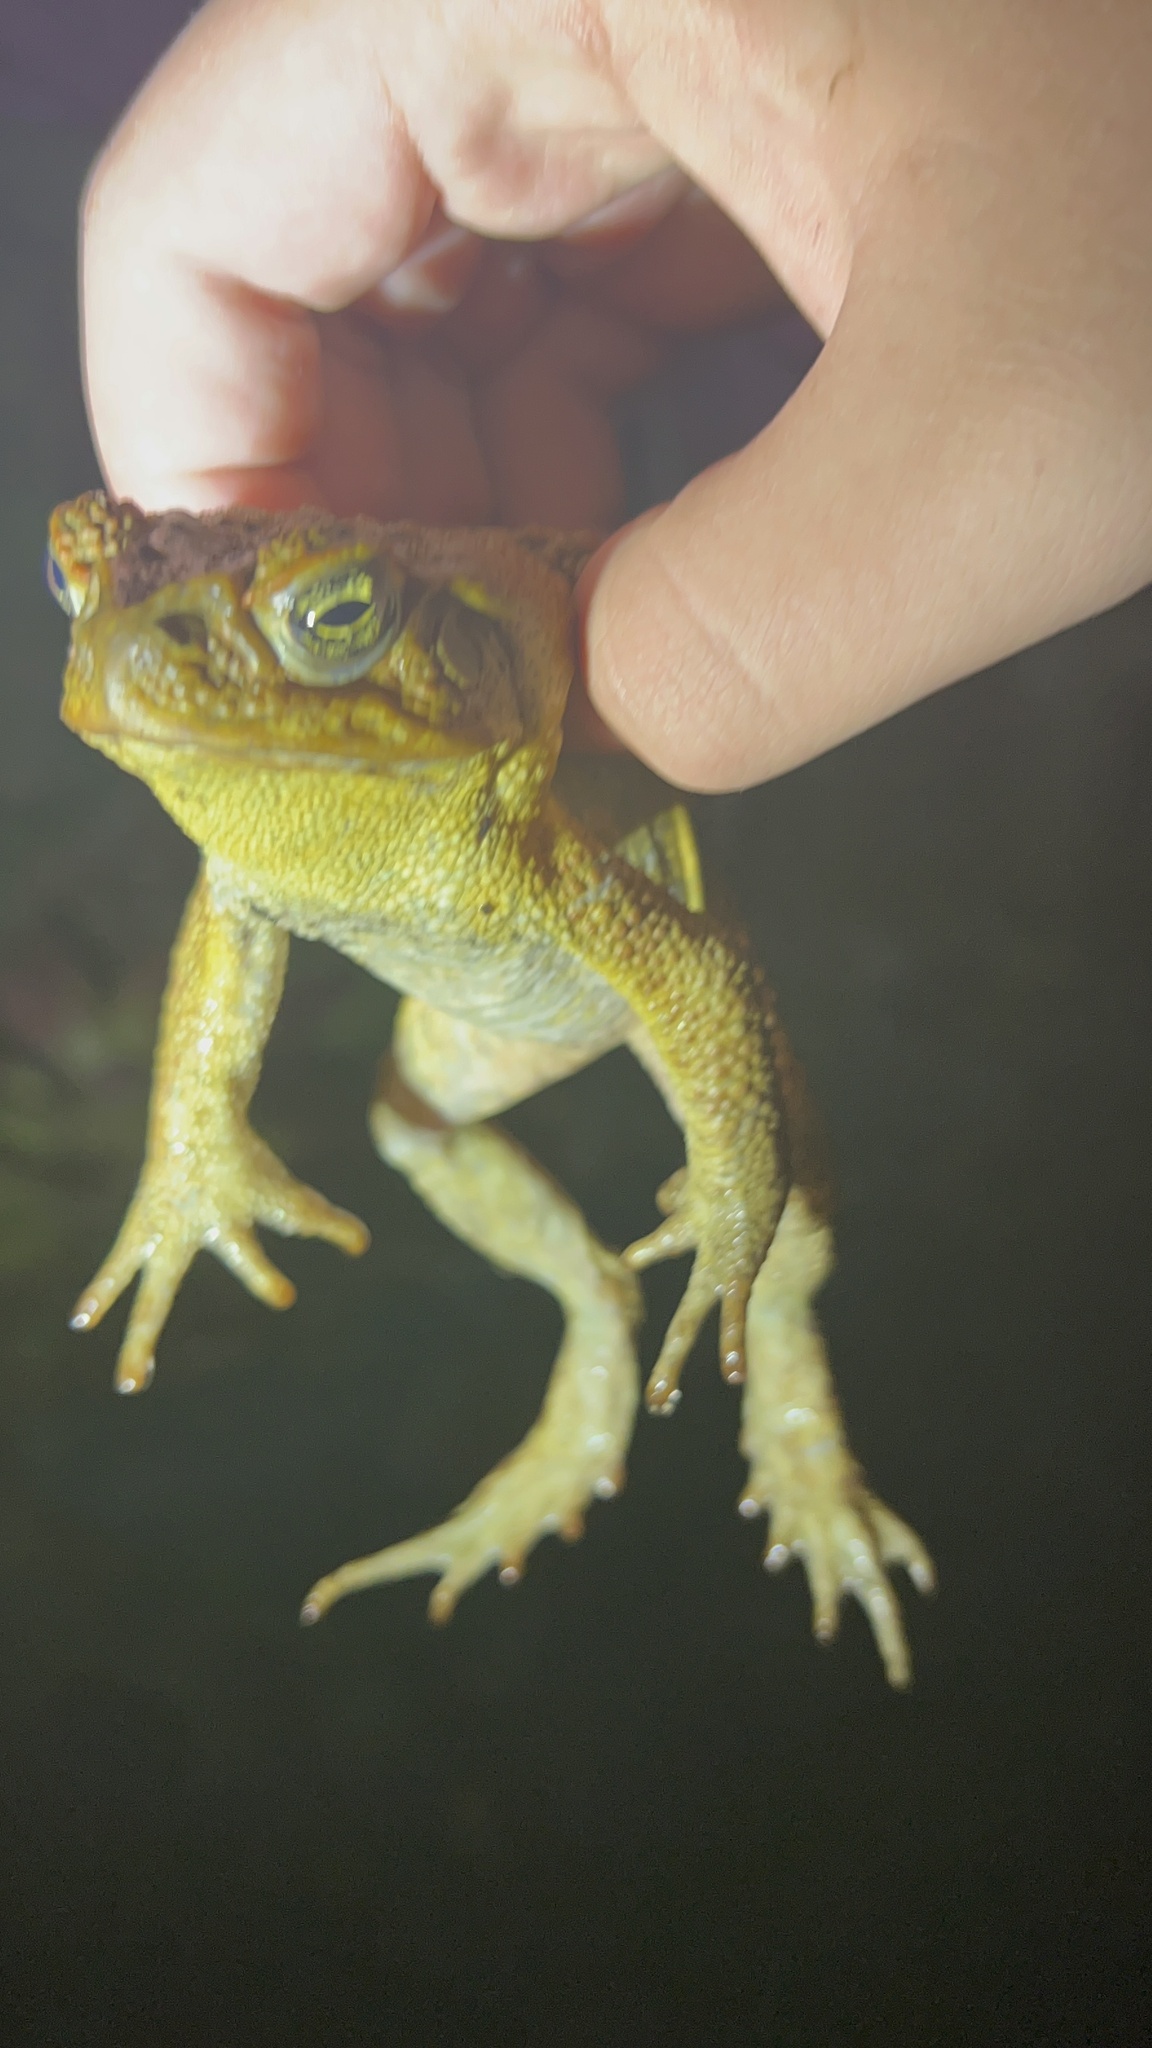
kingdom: Animalia
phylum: Chordata
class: Amphibia
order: Anura
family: Bufonidae
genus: Rhinella
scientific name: Rhinella marina
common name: Cane toad
